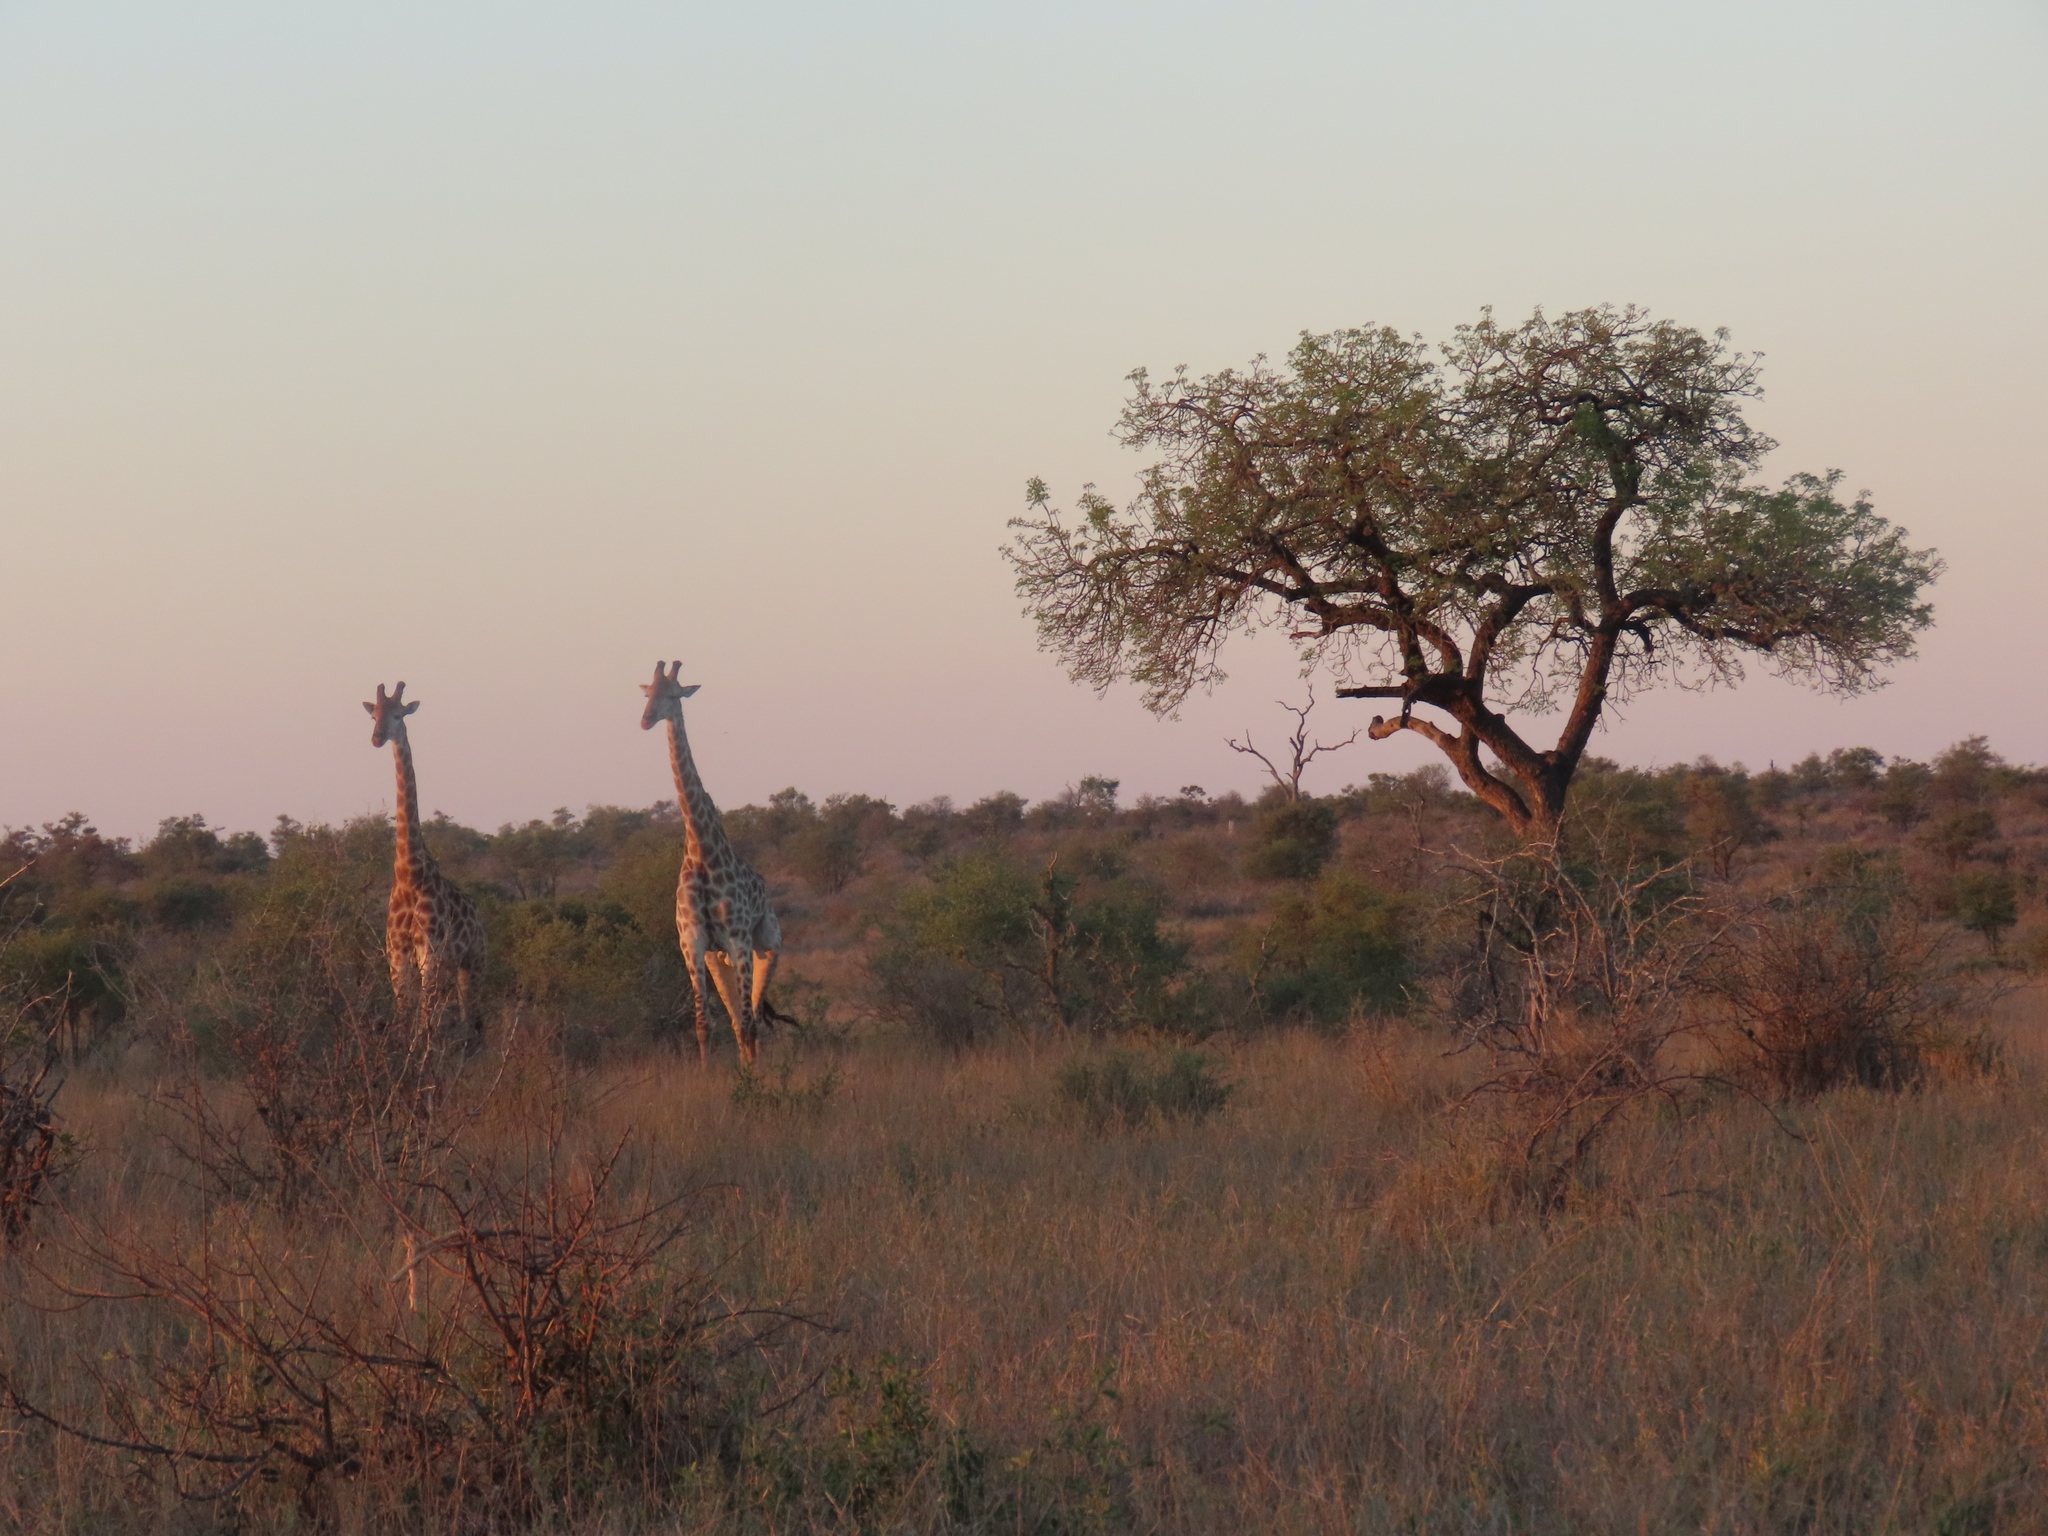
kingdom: Animalia
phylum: Chordata
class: Mammalia
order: Artiodactyla
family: Giraffidae
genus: Giraffa
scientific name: Giraffa giraffa
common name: Southern giraffe
